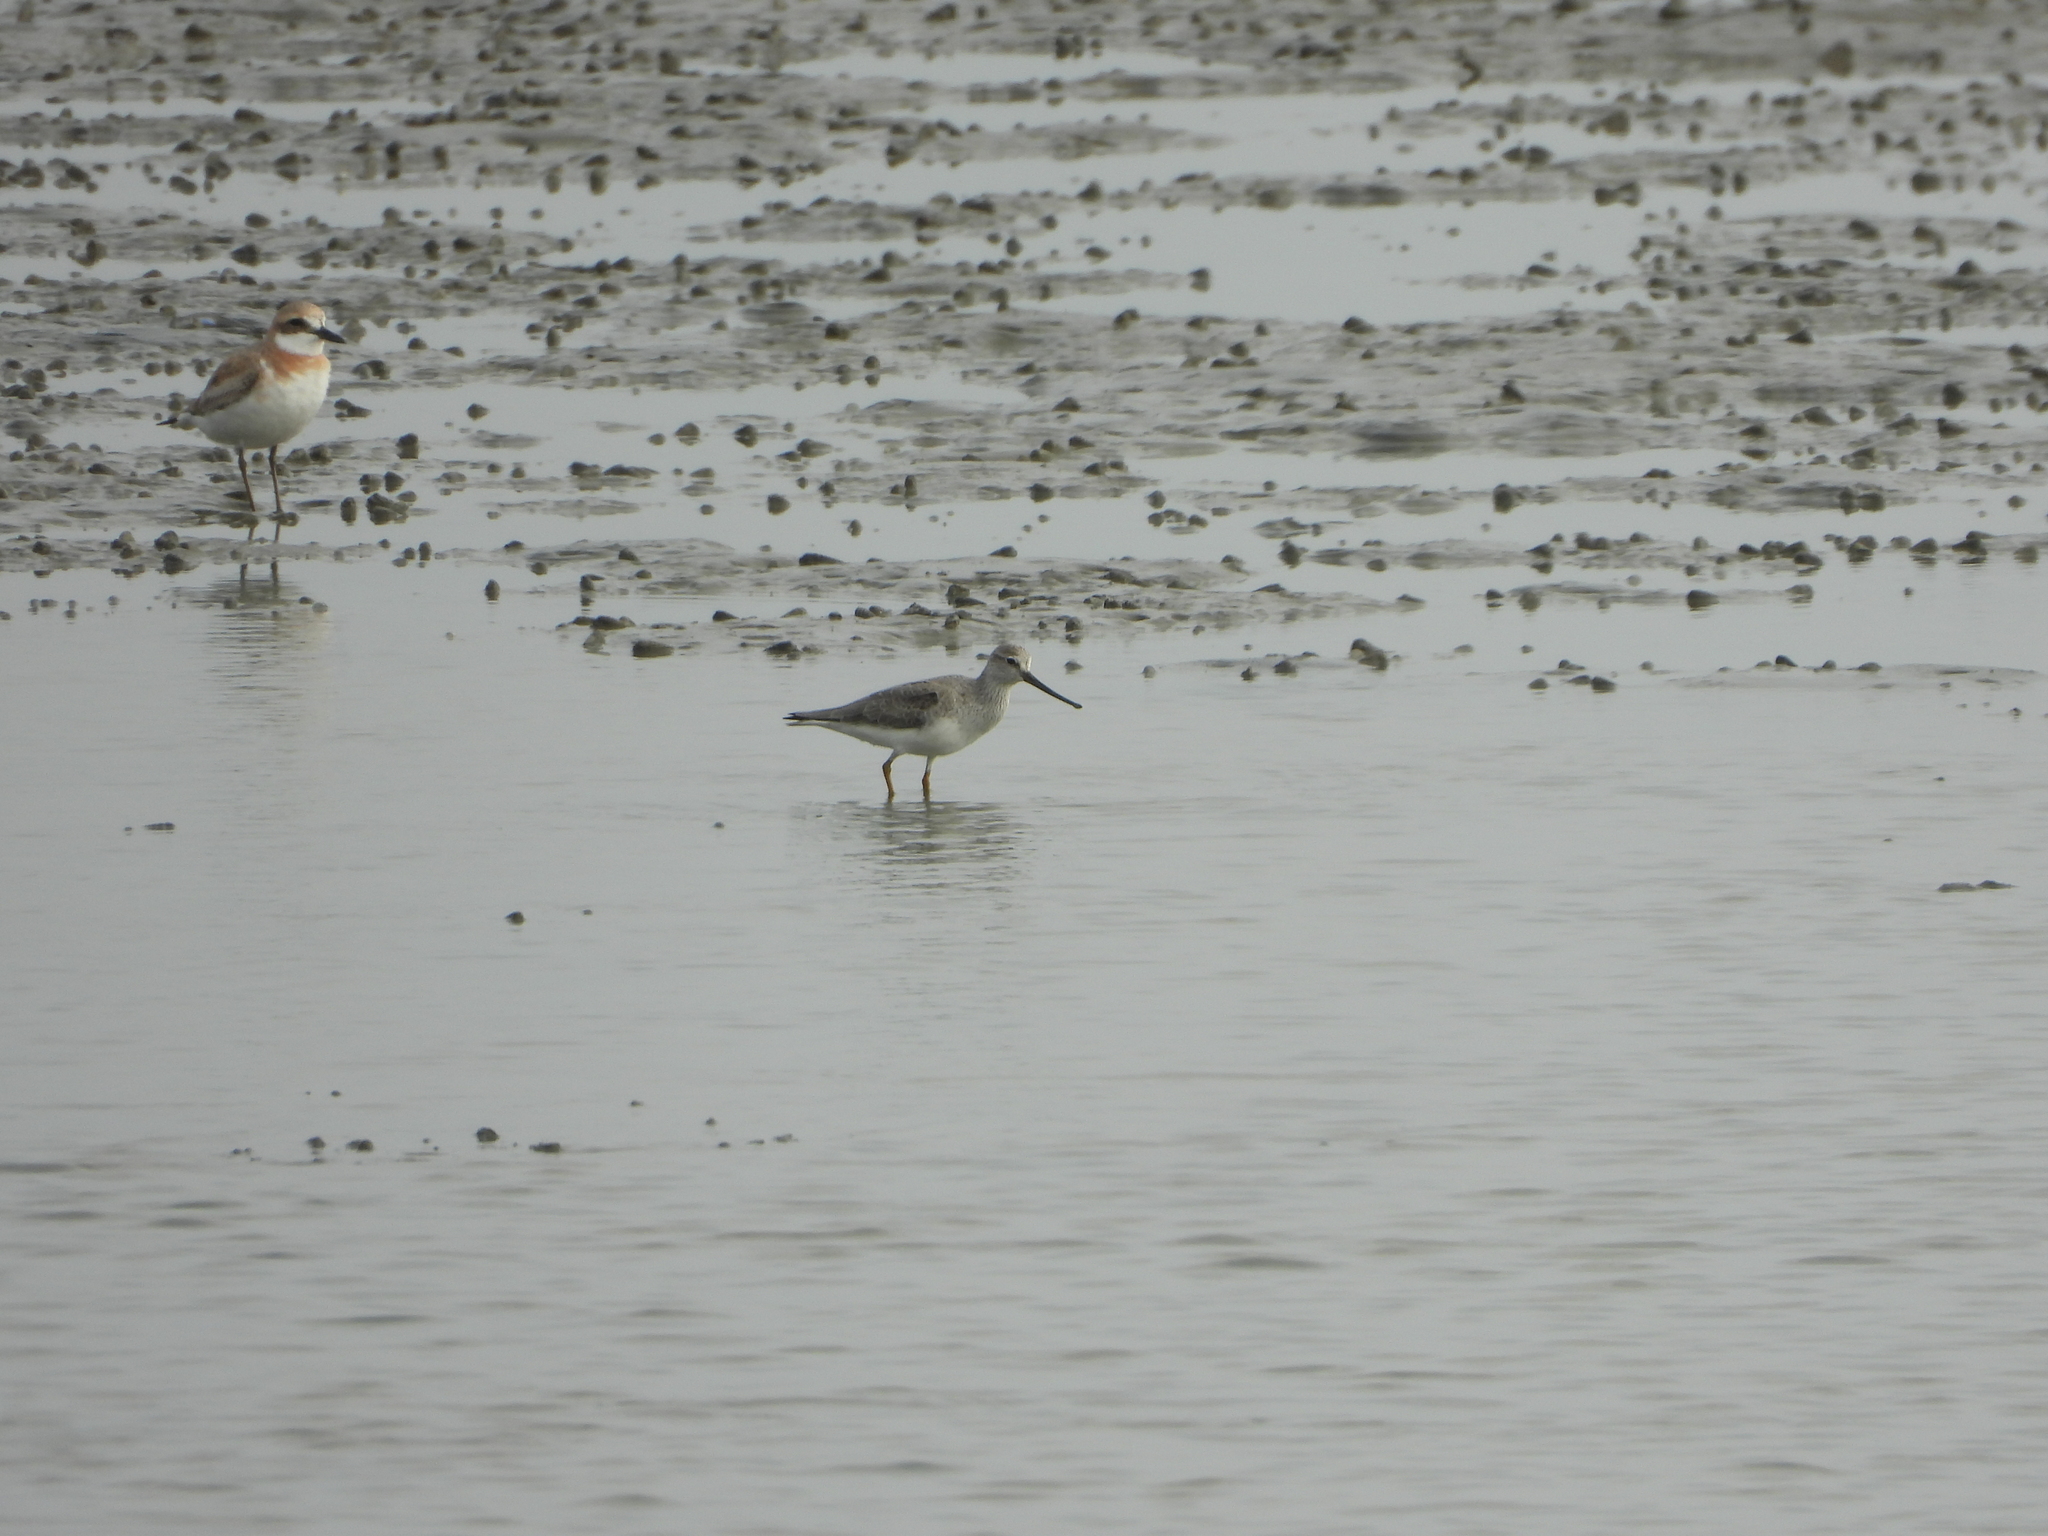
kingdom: Animalia
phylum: Chordata
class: Aves
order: Charadriiformes
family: Scolopacidae
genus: Xenus
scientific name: Xenus cinereus
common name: Terek sandpiper
